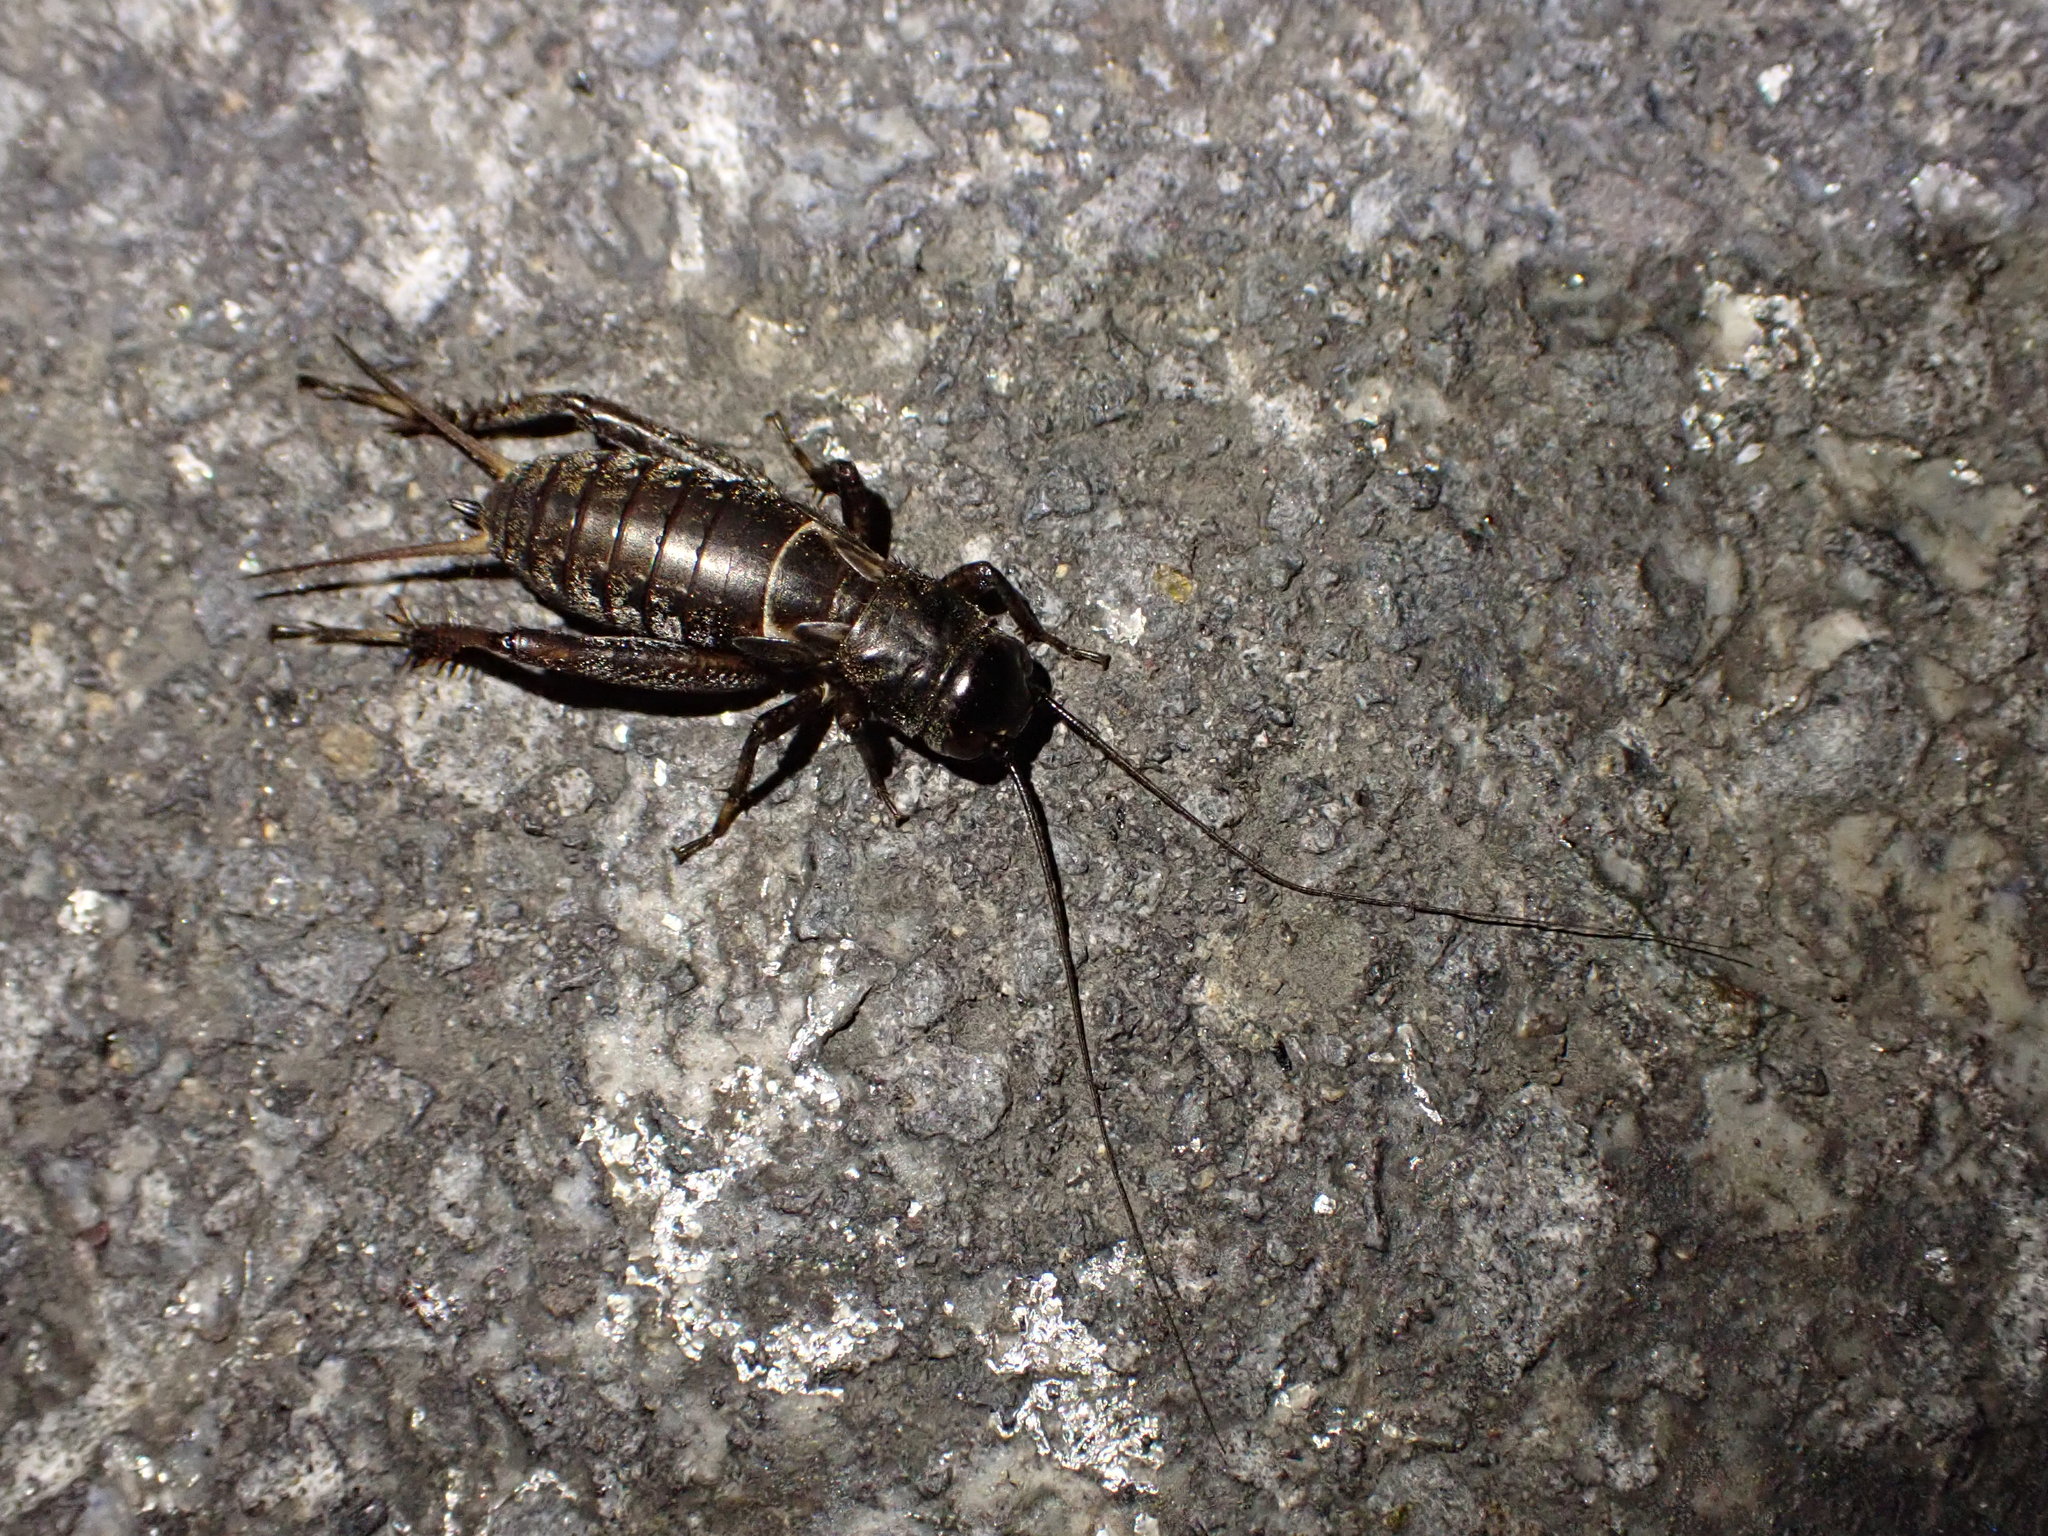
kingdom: Animalia
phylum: Arthropoda
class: Insecta
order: Orthoptera
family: Gryllidae
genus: Teleogryllus
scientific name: Teleogryllus commodus
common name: Black field cricket
